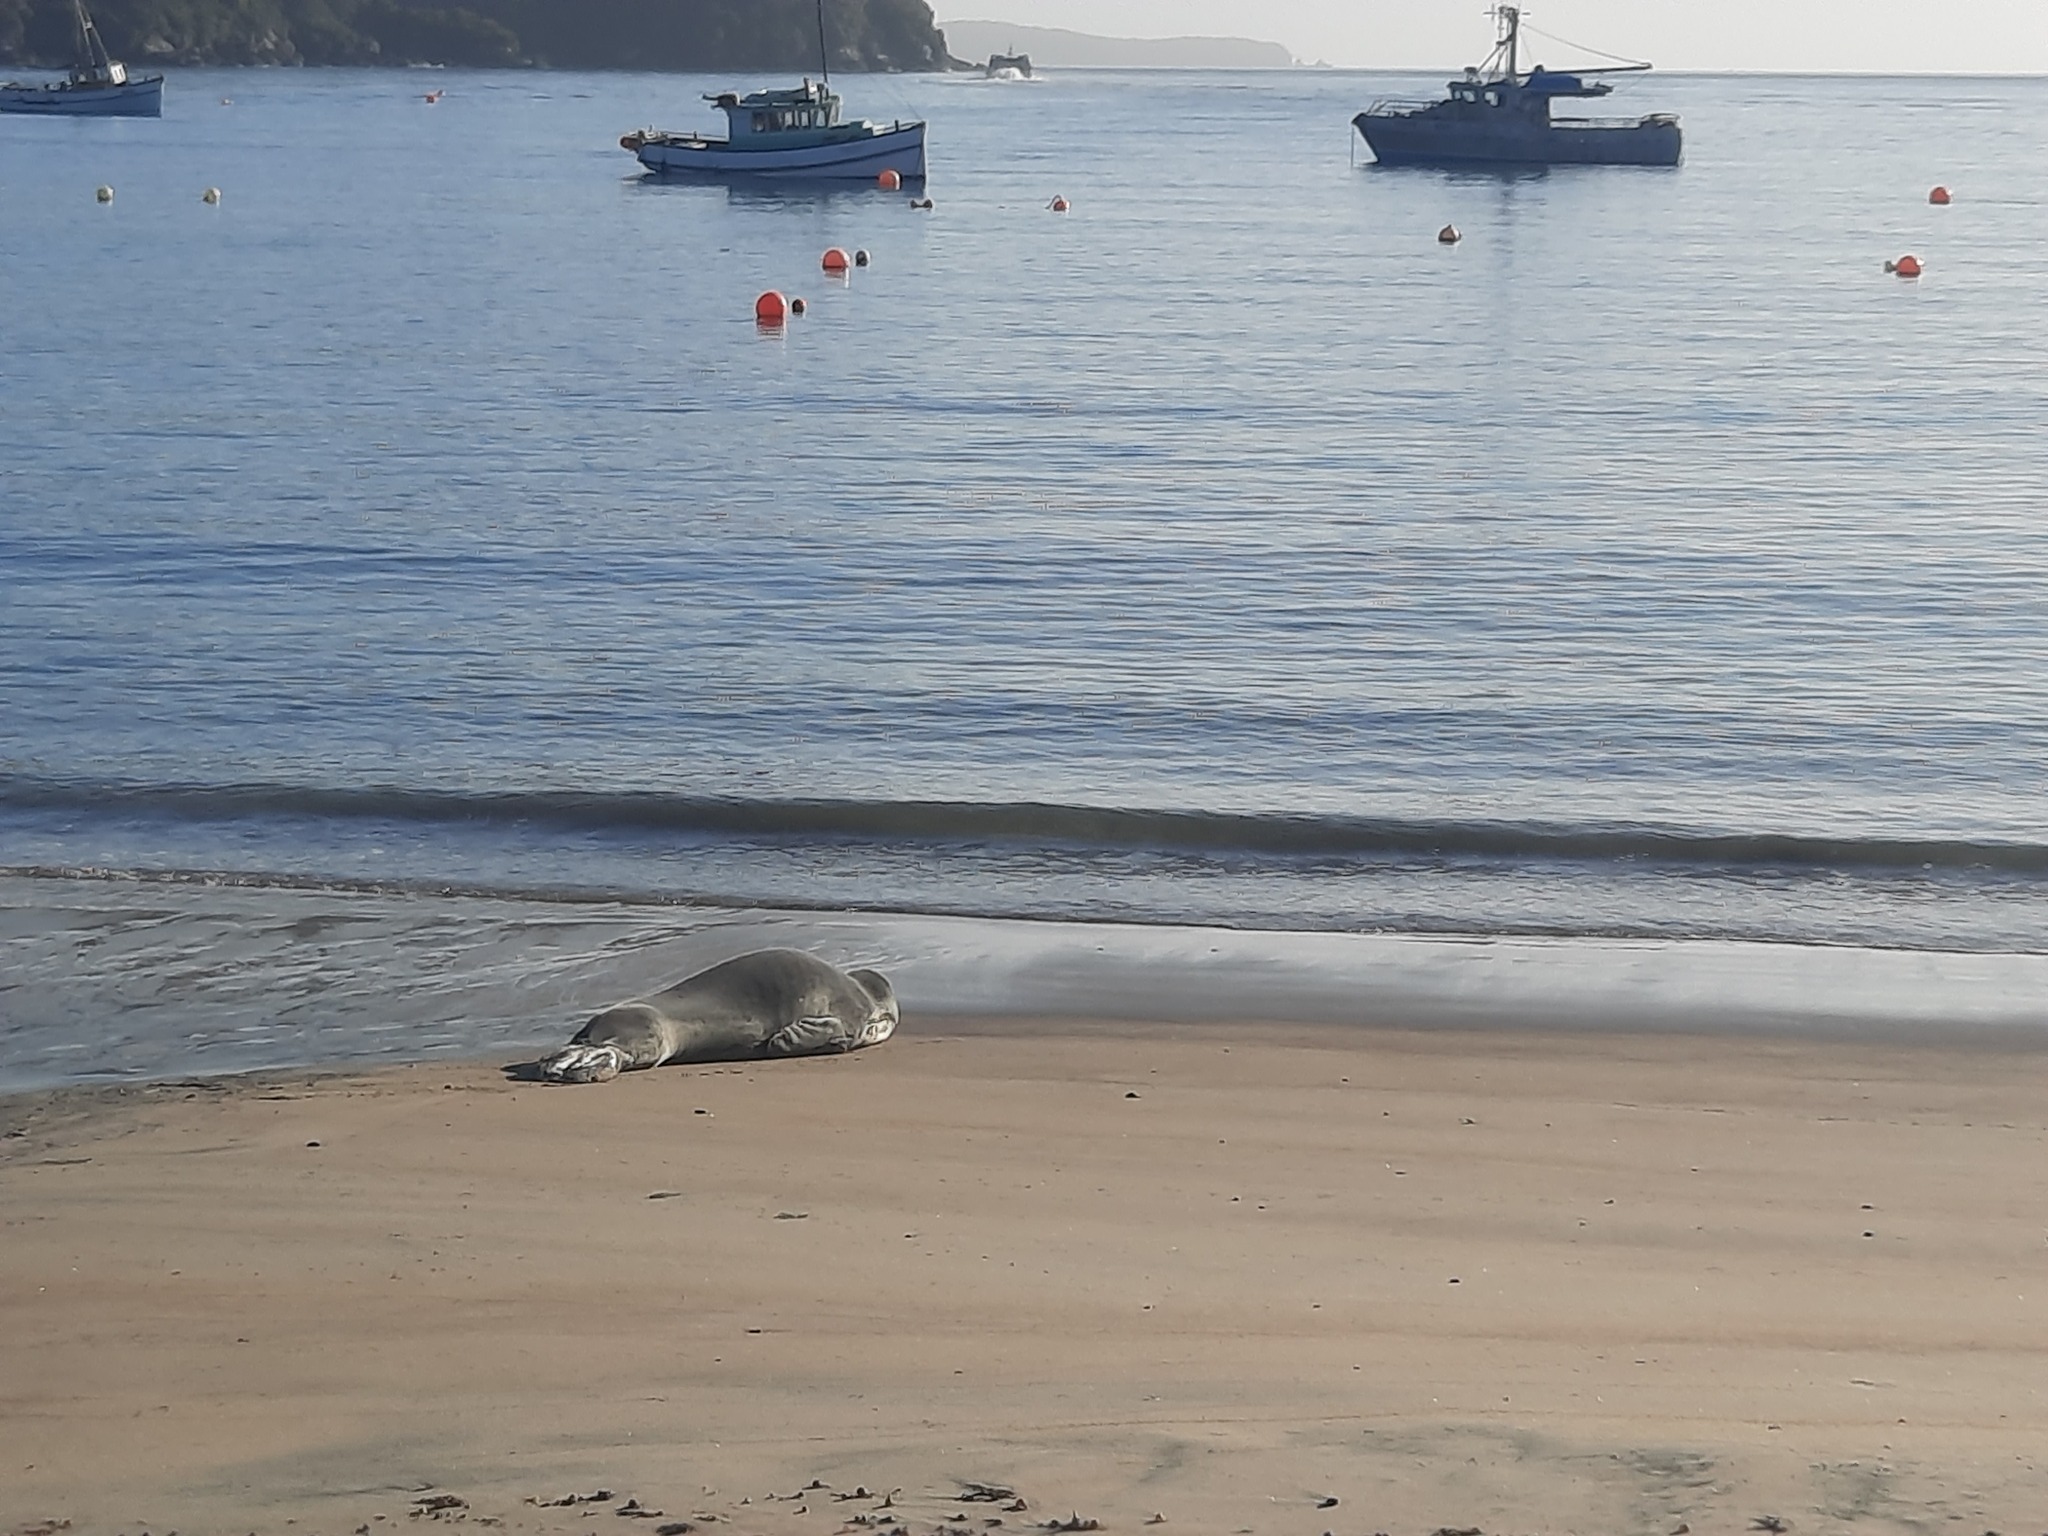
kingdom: Animalia
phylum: Chordata
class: Mammalia
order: Carnivora
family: Phocidae
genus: Hydrurga
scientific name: Hydrurga leptonyx
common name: Leopard seal
